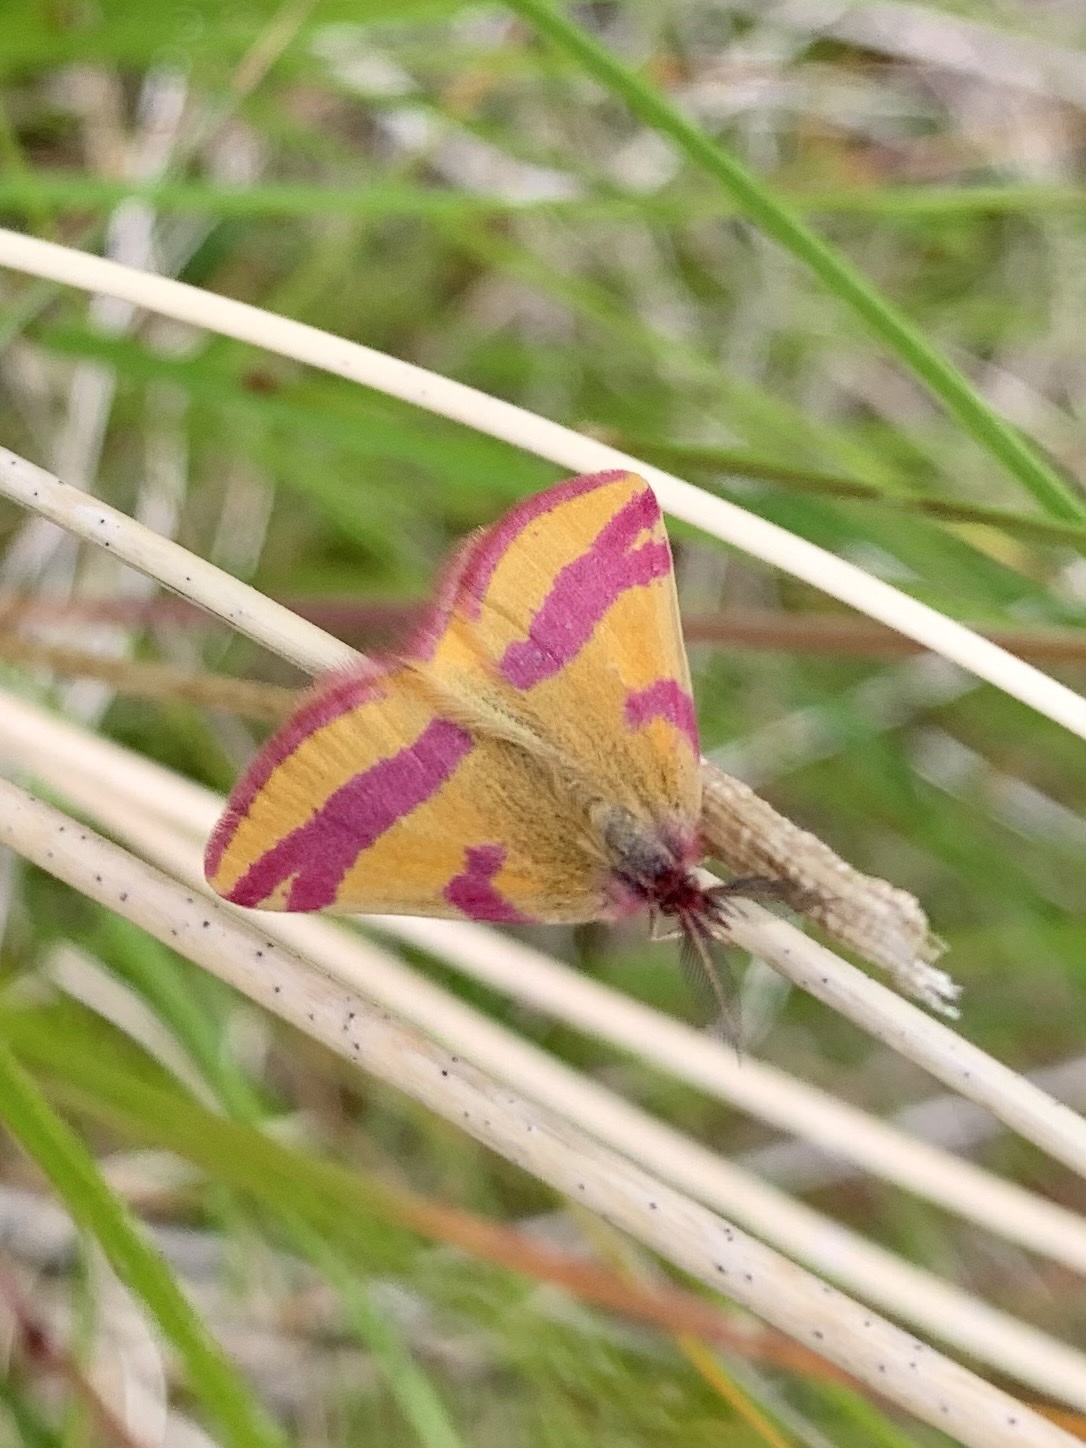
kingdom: Animalia
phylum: Arthropoda
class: Insecta
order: Lepidoptera
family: Geometridae
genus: Lythria
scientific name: Lythria cruentaria
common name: Purple-barred yellow
